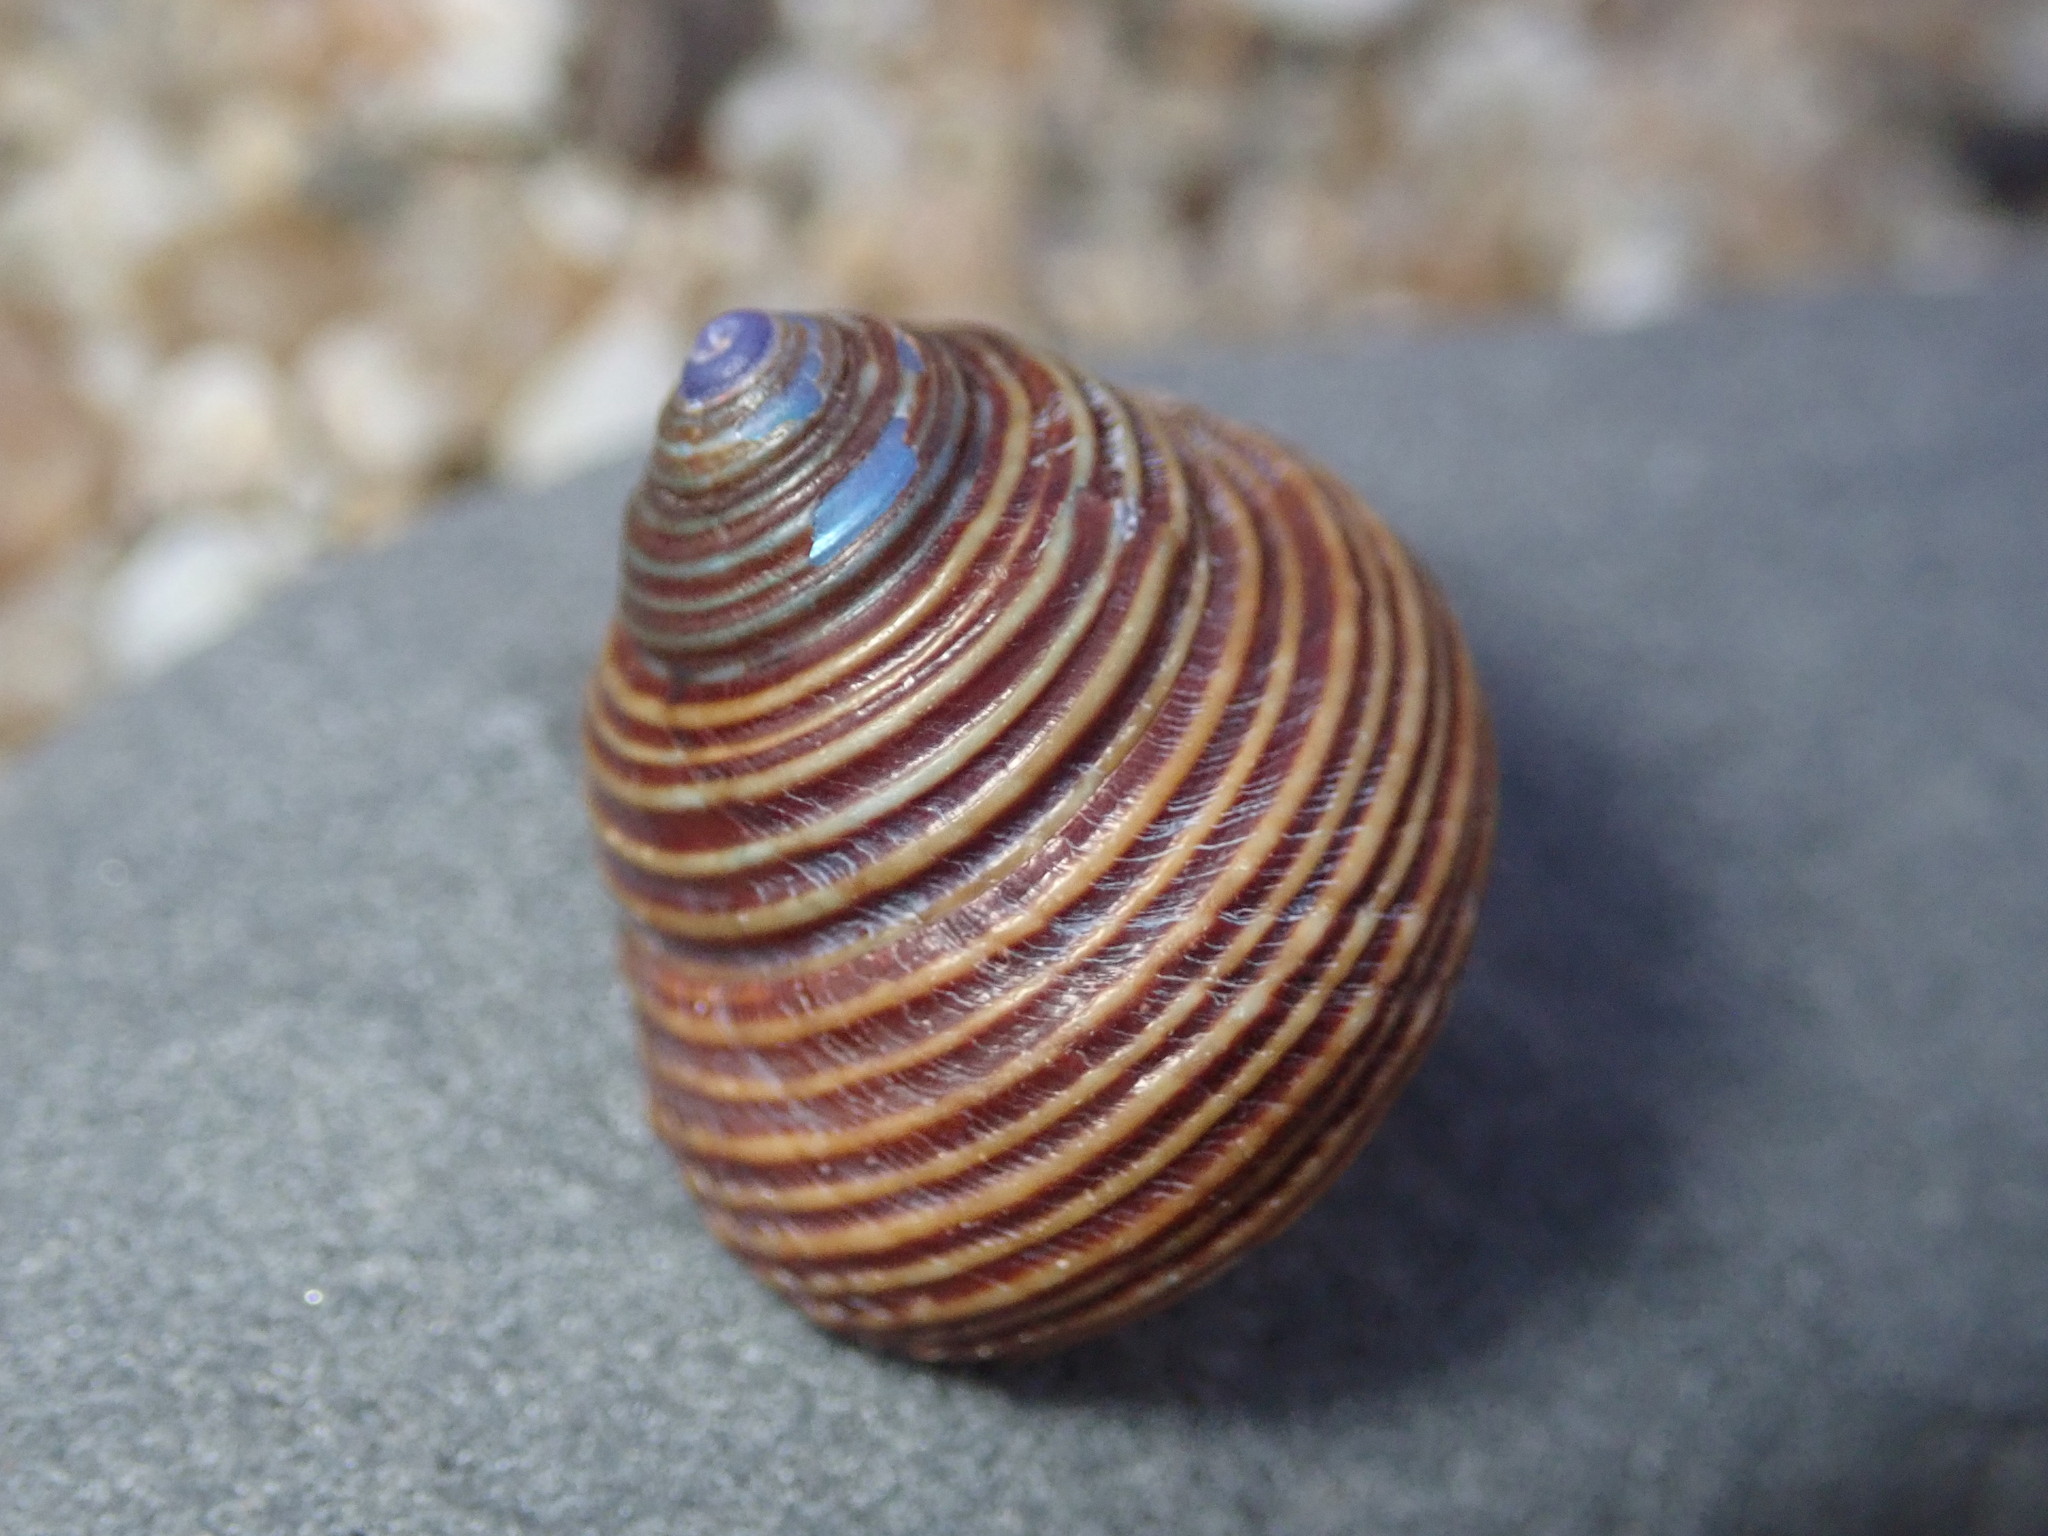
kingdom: Animalia
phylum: Mollusca
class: Gastropoda
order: Trochida
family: Calliostomatidae
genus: Calliostoma
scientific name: Calliostoma ligatum
